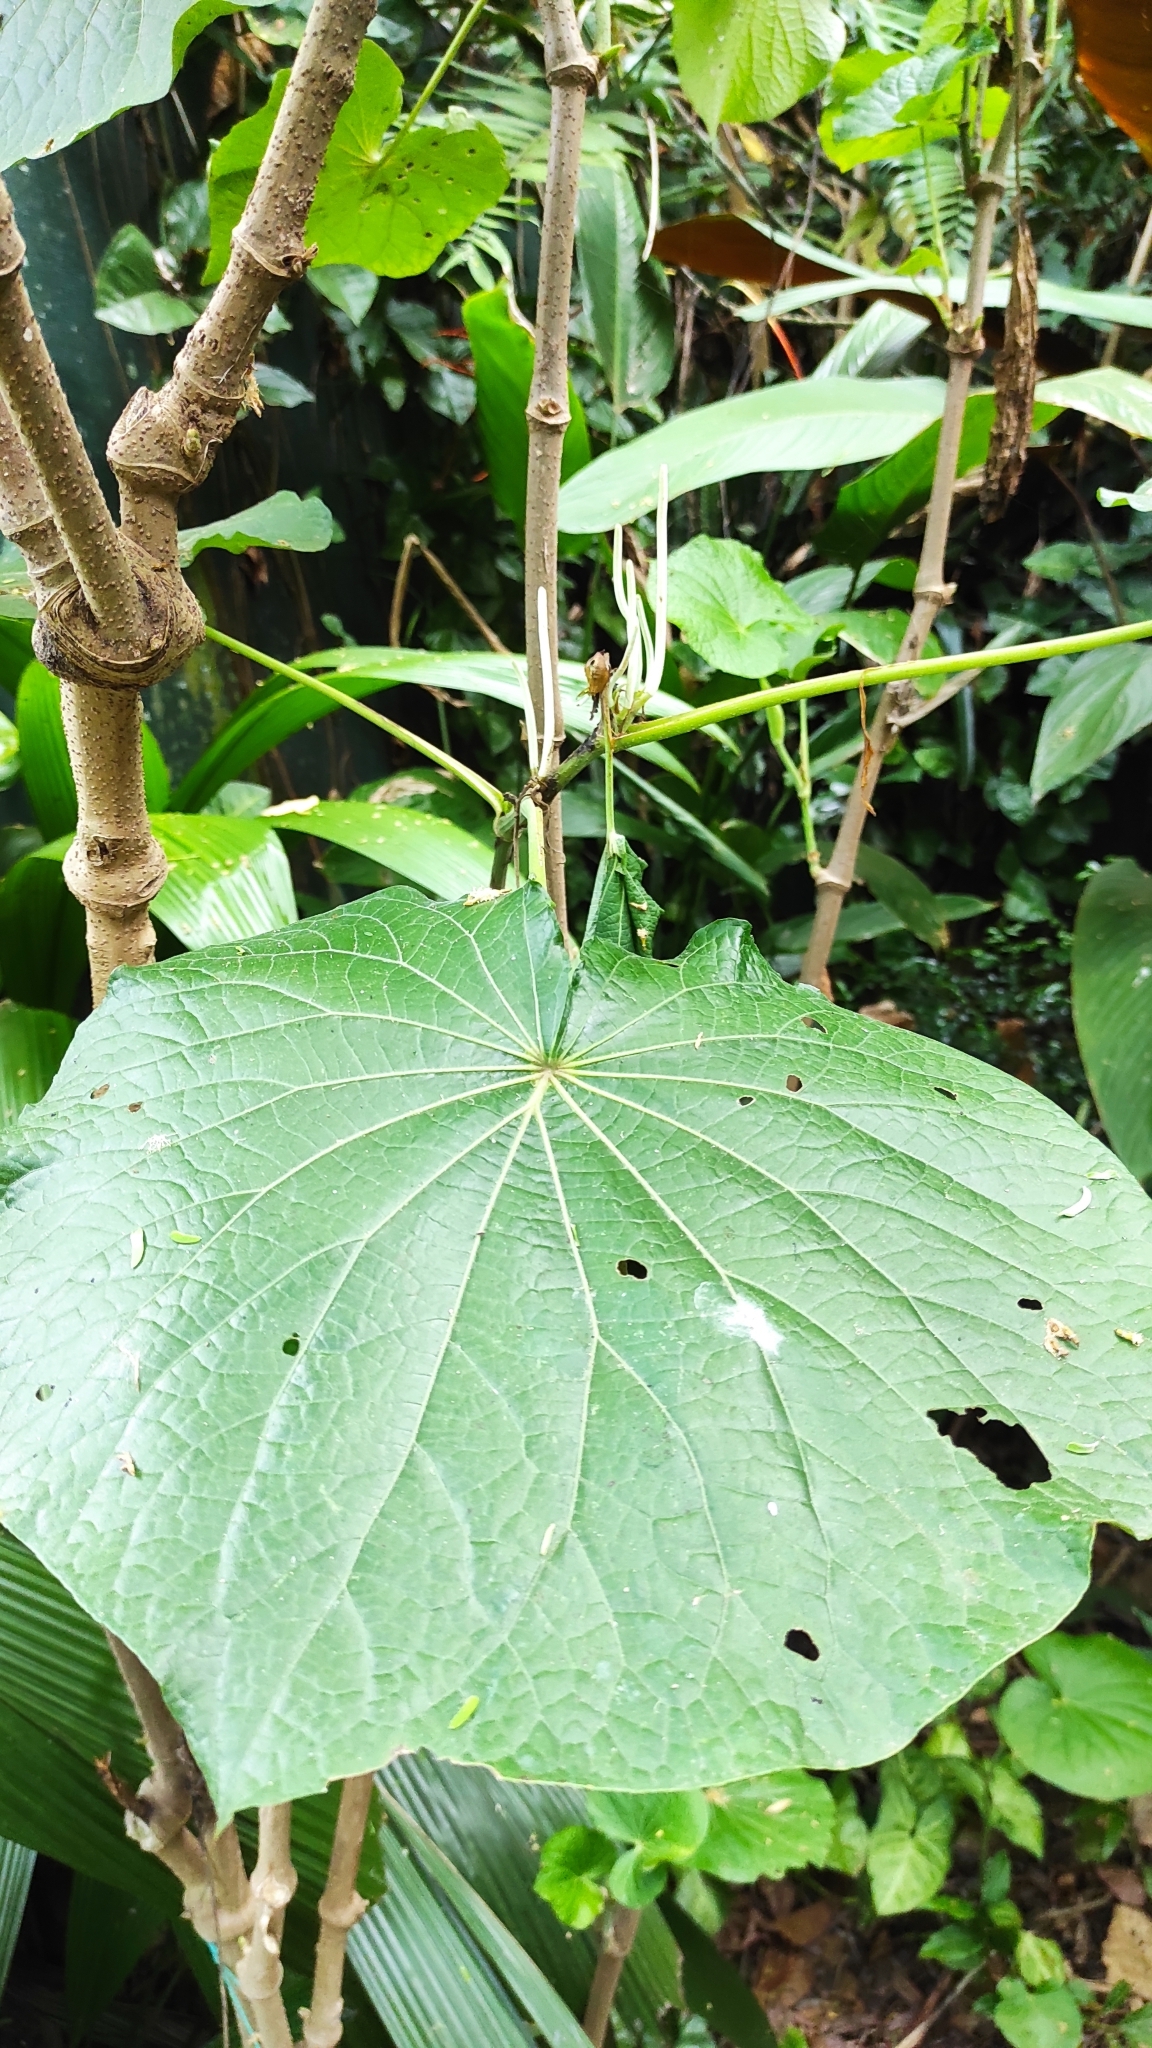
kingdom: Plantae
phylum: Tracheophyta
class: Magnoliopsida
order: Piperales
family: Piperaceae
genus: Piper
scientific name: Piper umbellatum
